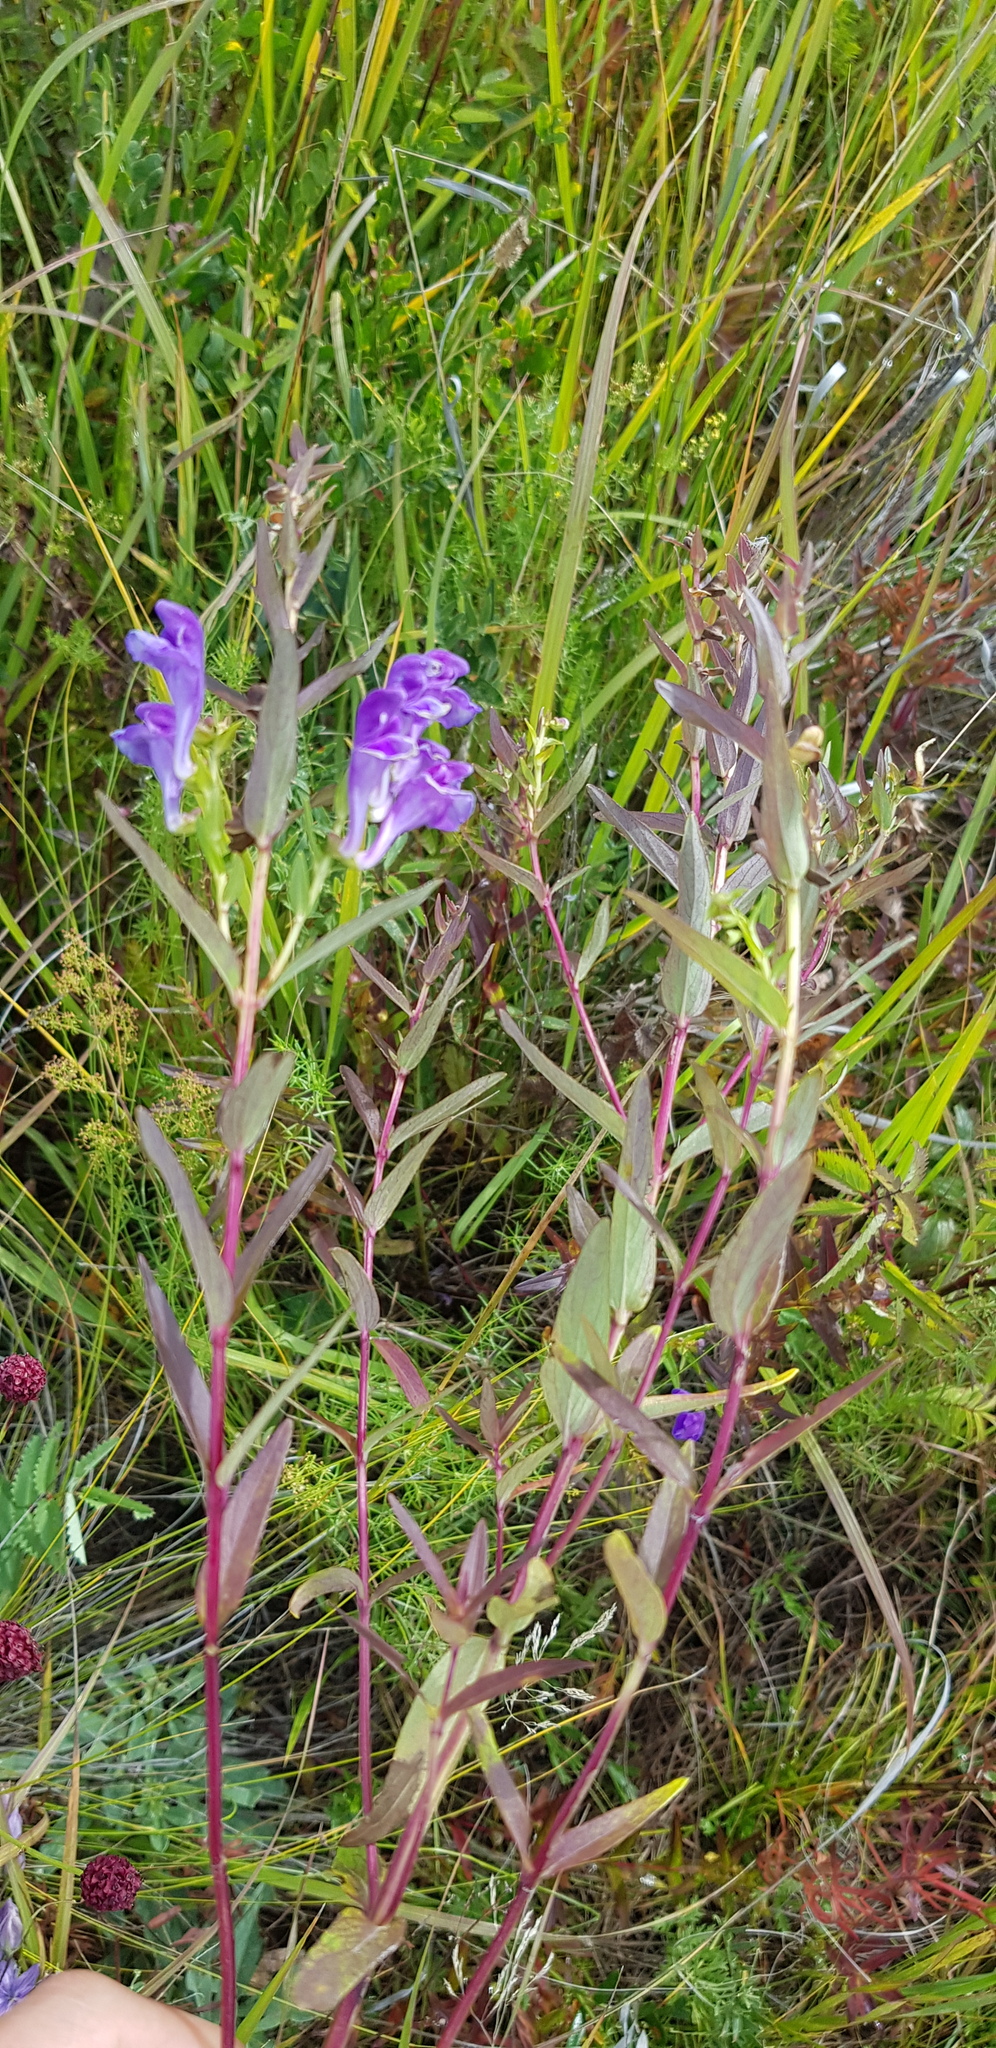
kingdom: Plantae
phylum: Tracheophyta
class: Magnoliopsida
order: Lamiales
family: Lamiaceae
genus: Scutellaria
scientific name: Scutellaria baicalensis
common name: Baikal skullcap
